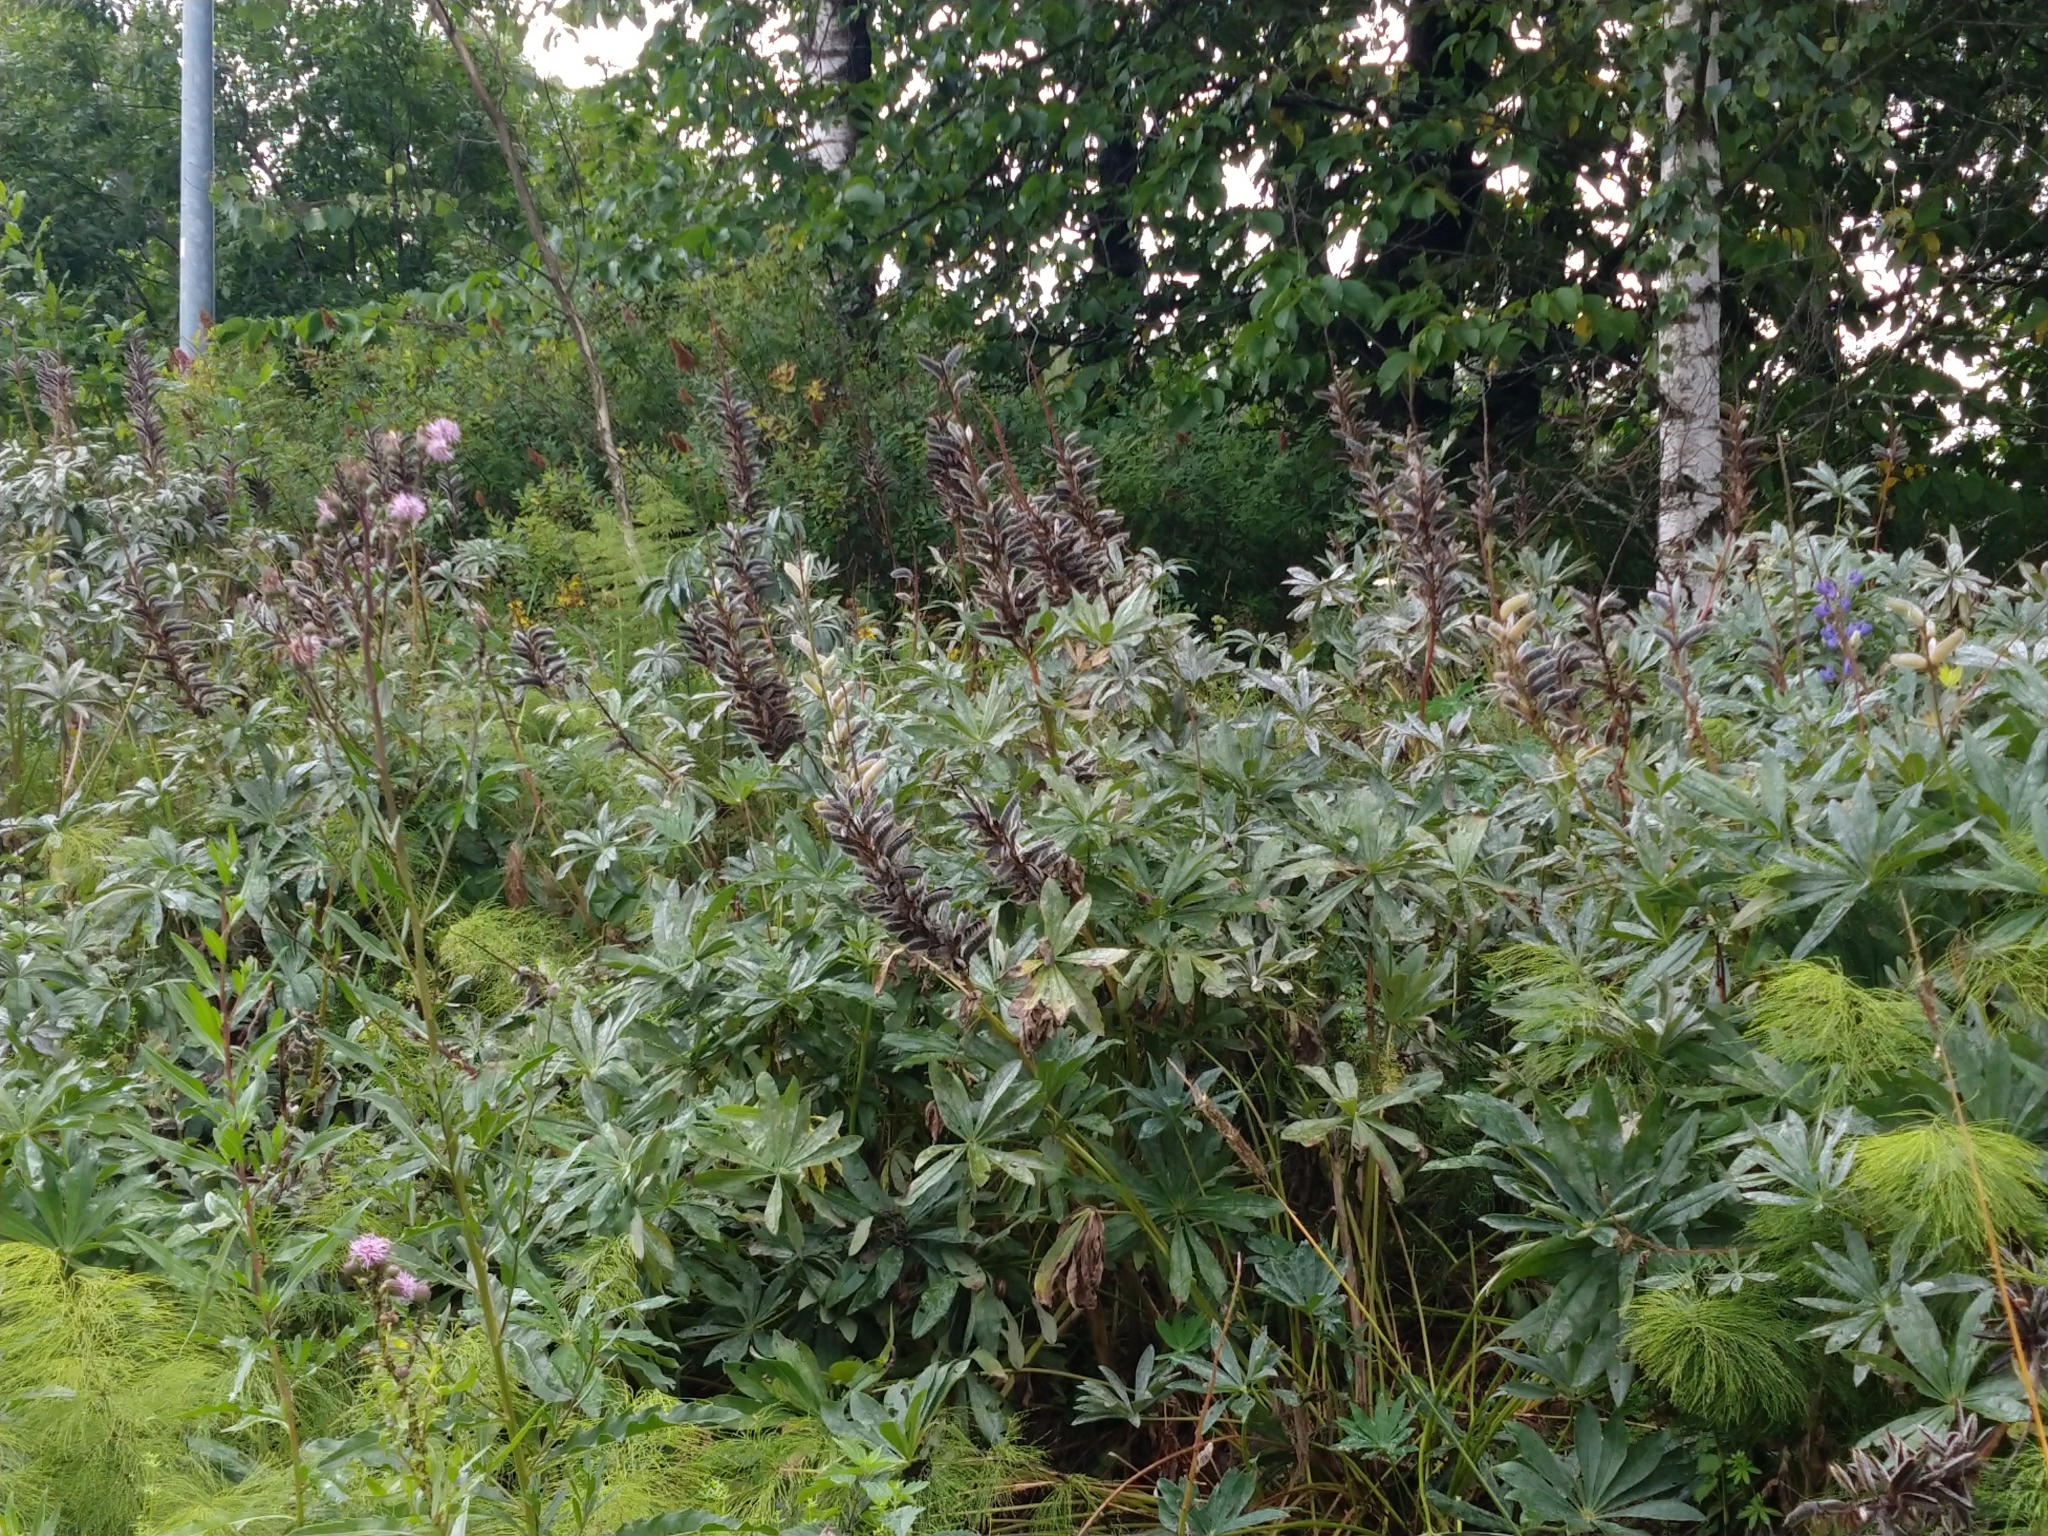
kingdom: Plantae
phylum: Tracheophyta
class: Magnoliopsida
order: Fabales
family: Fabaceae
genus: Lupinus
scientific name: Lupinus polyphyllus
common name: Garden lupin
